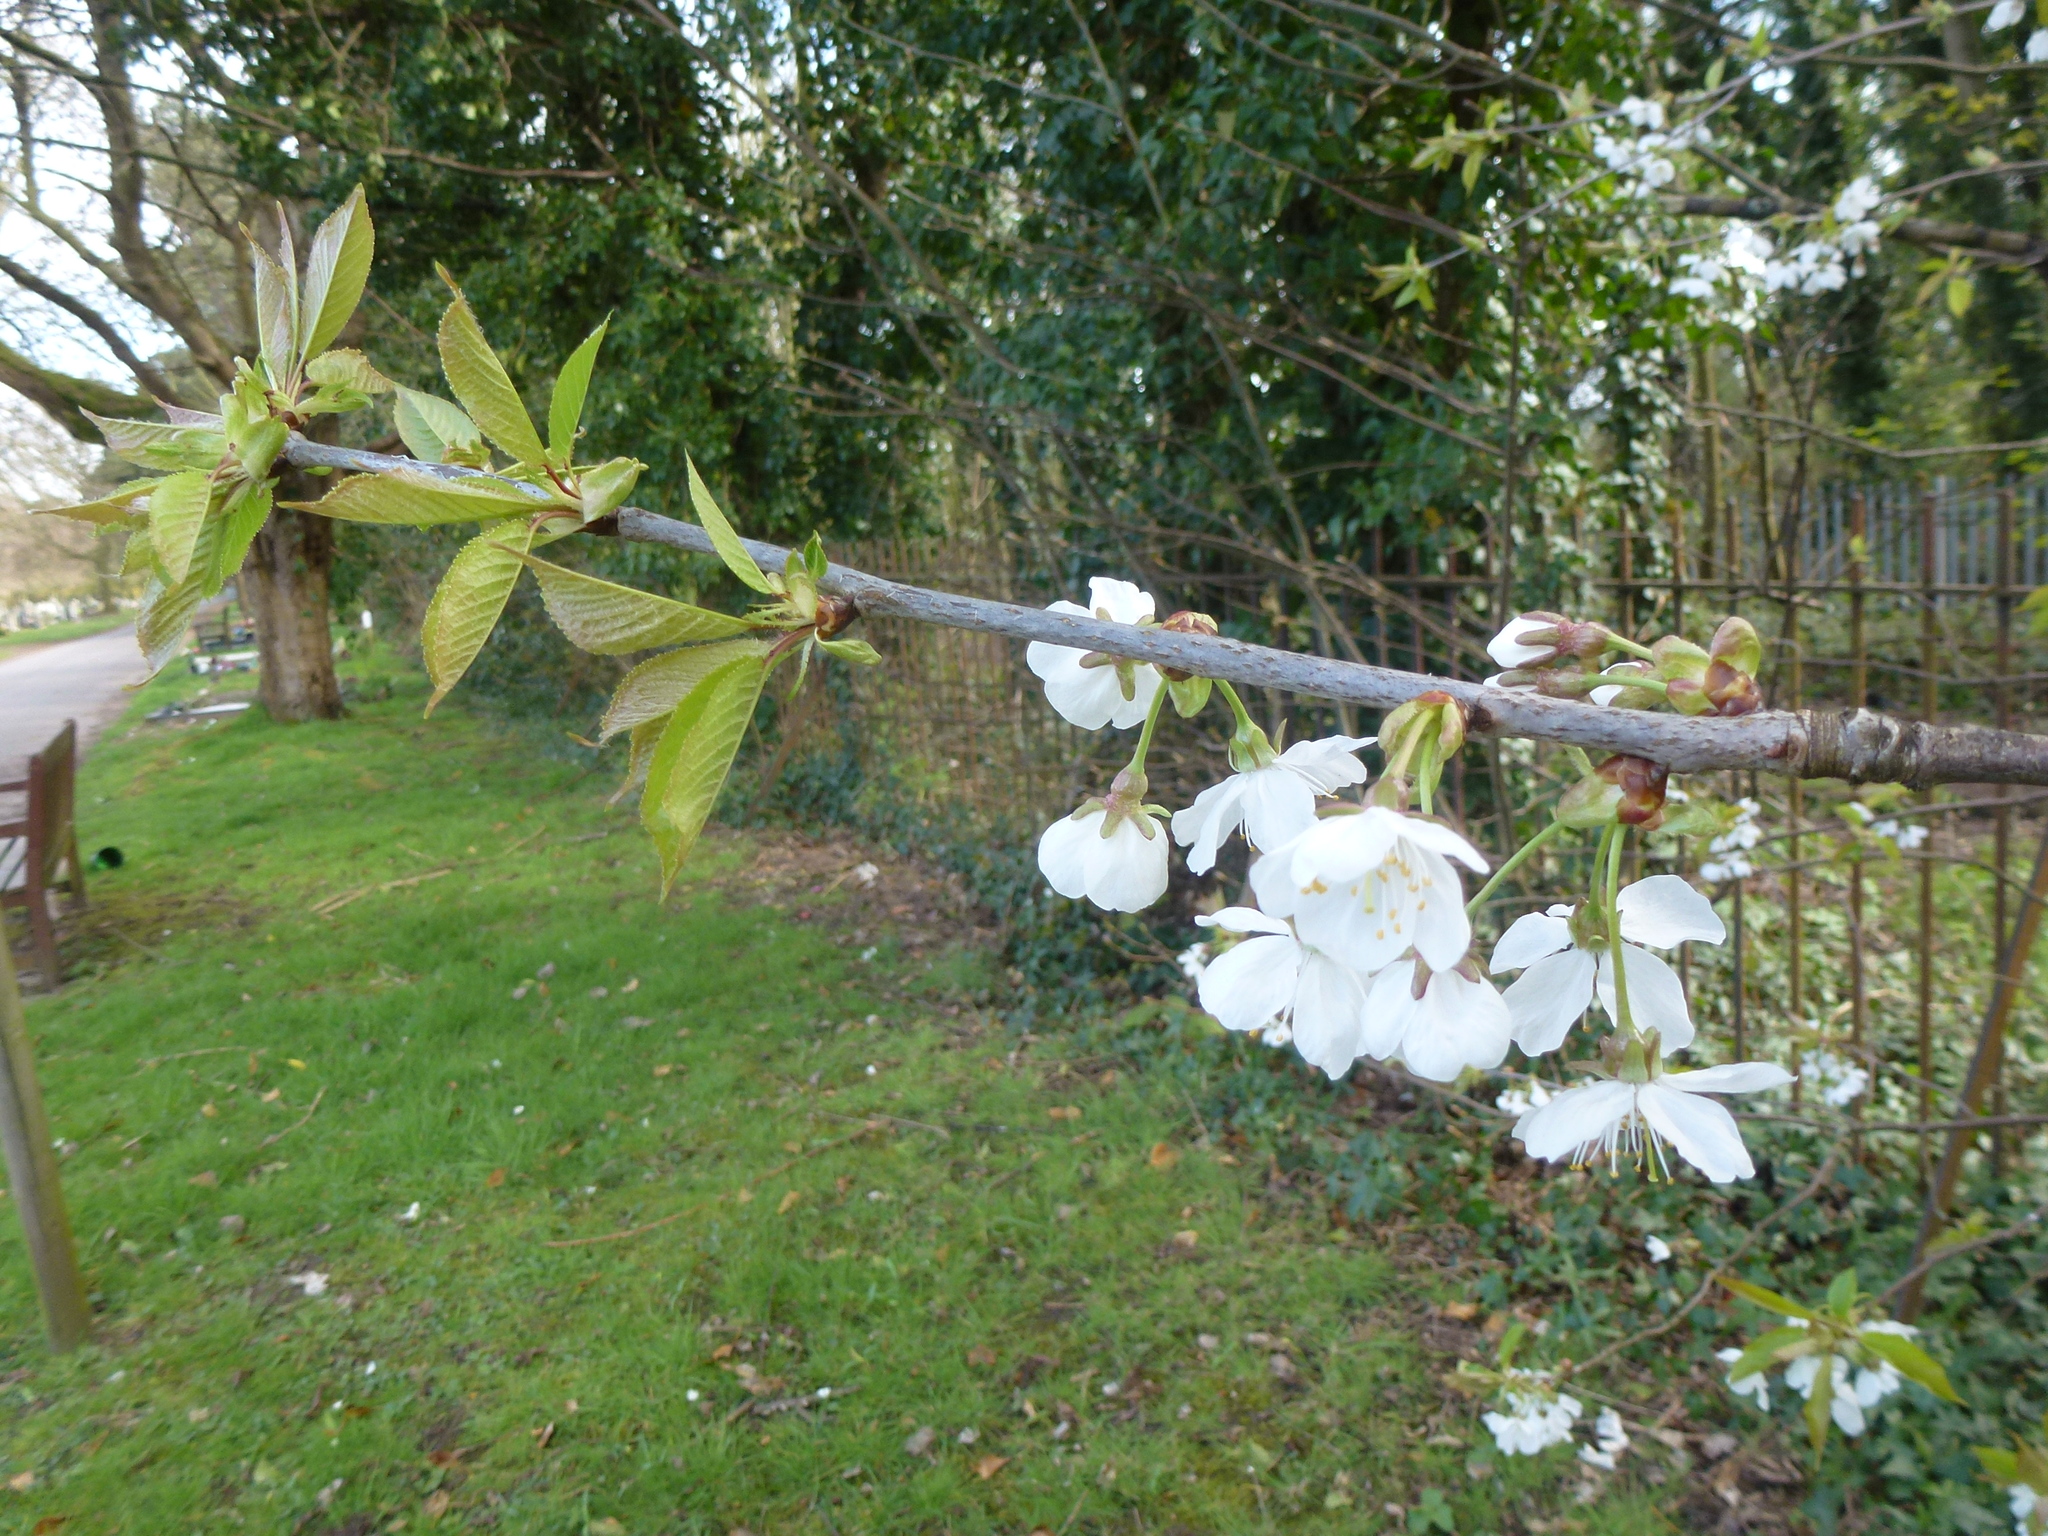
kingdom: Plantae
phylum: Tracheophyta
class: Magnoliopsida
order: Rosales
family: Rosaceae
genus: Prunus
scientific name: Prunus avium
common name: Sweet cherry
